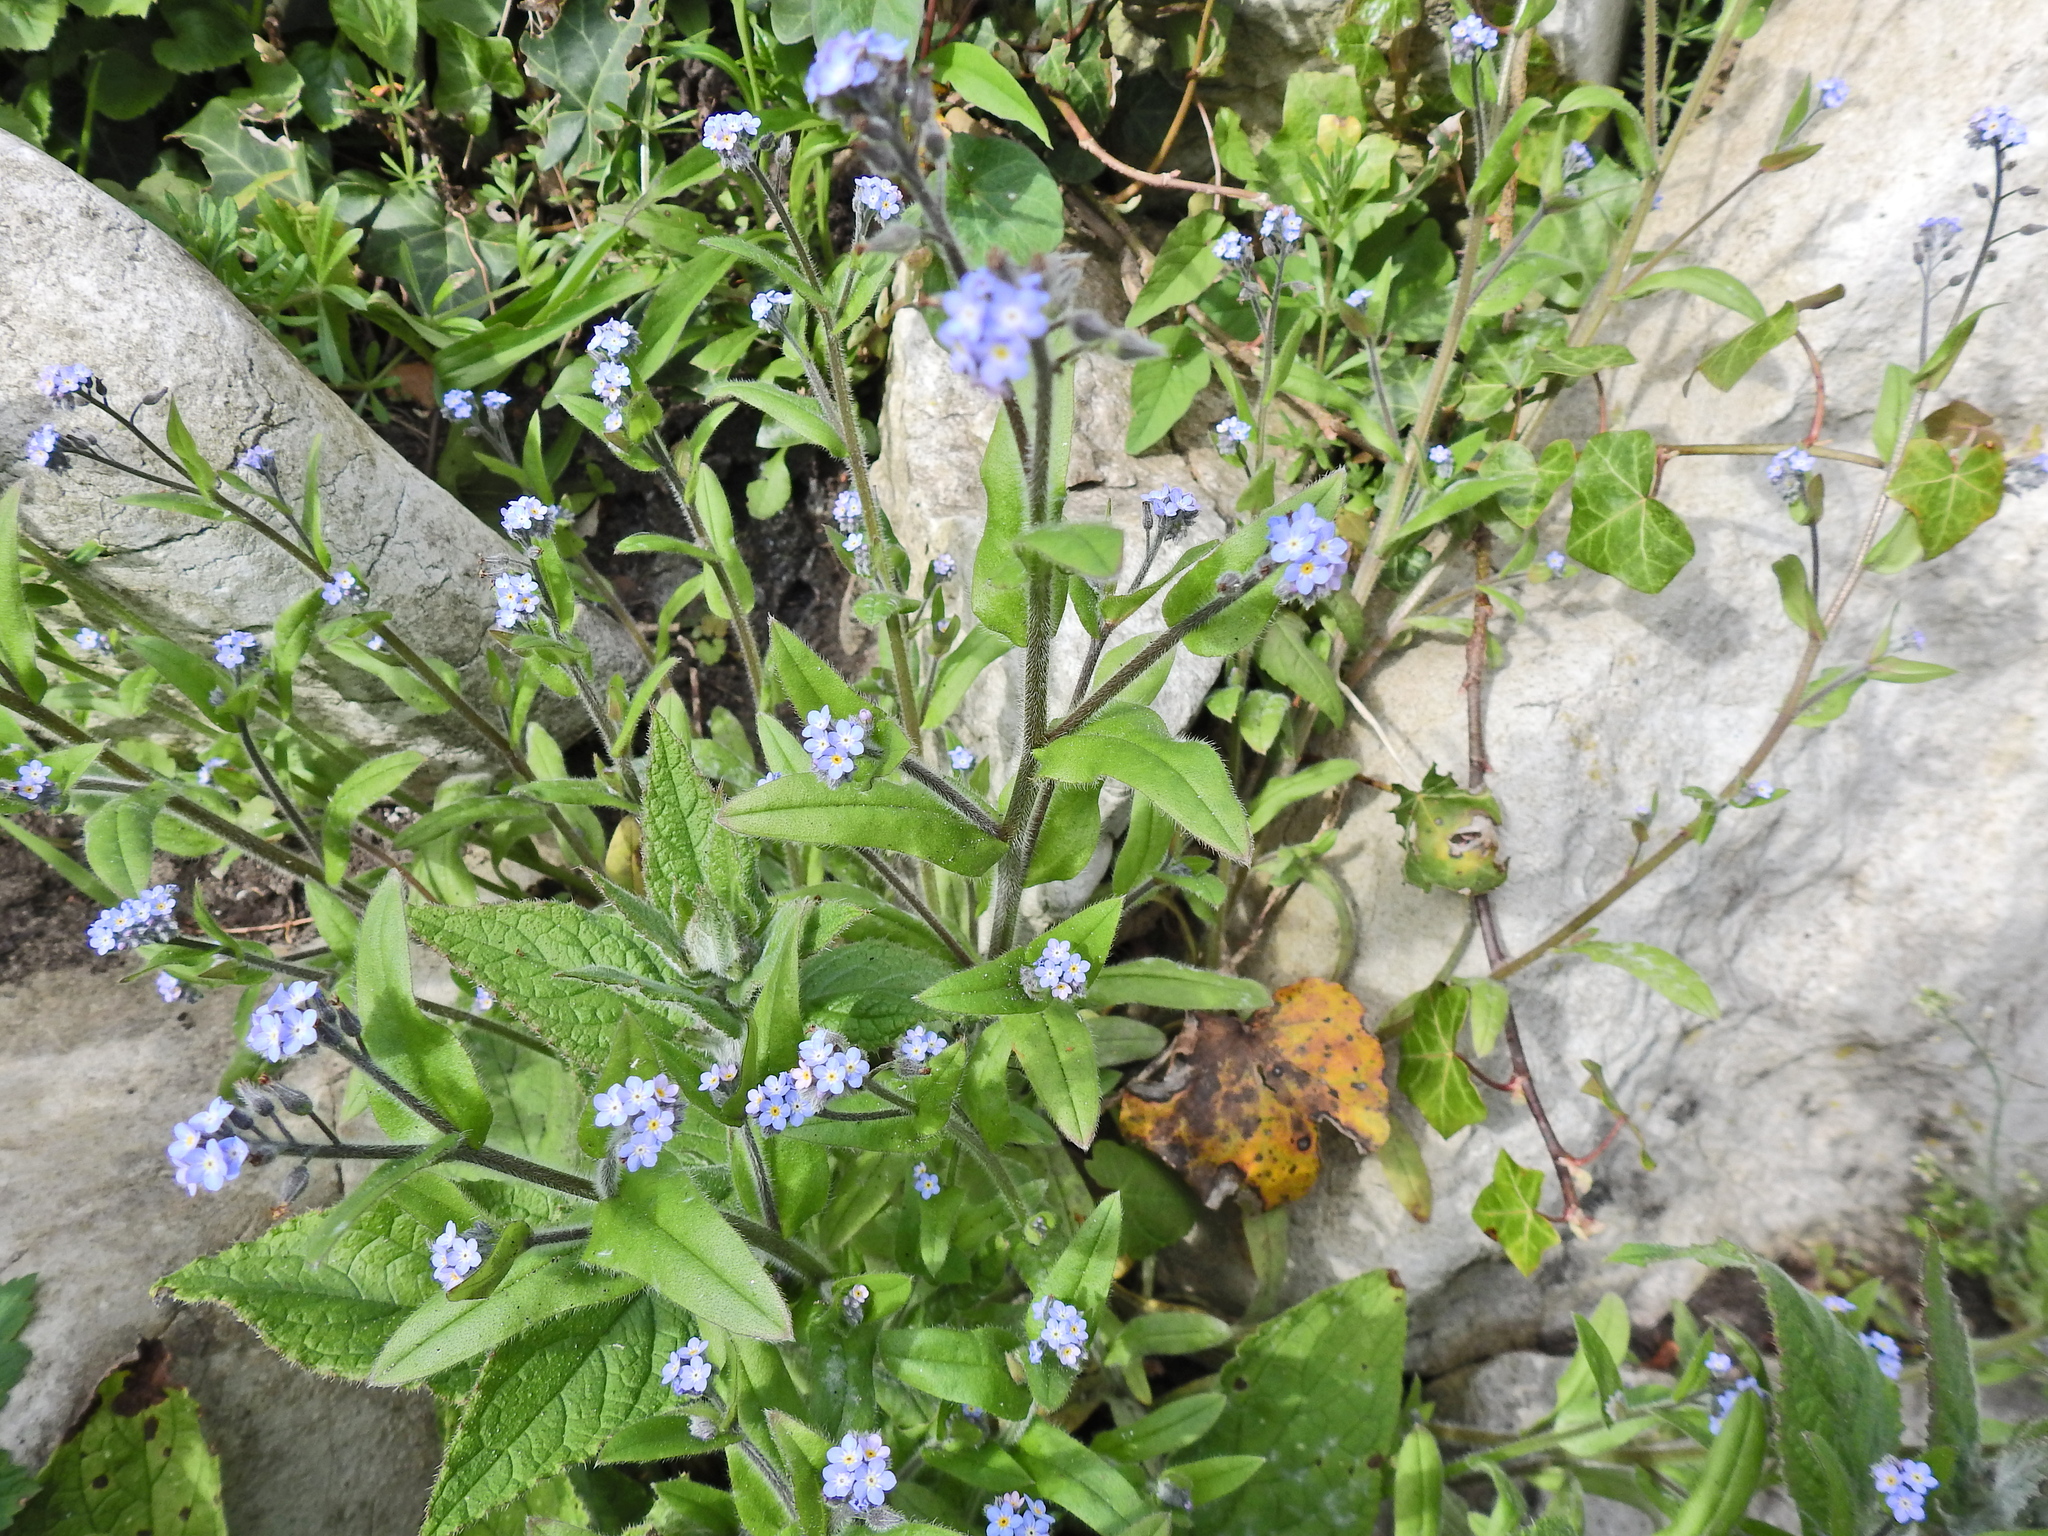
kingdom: Plantae
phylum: Tracheophyta
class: Magnoliopsida
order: Boraginales
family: Boraginaceae
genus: Myosotis
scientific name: Myosotis arvensis
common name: Field forget-me-not
